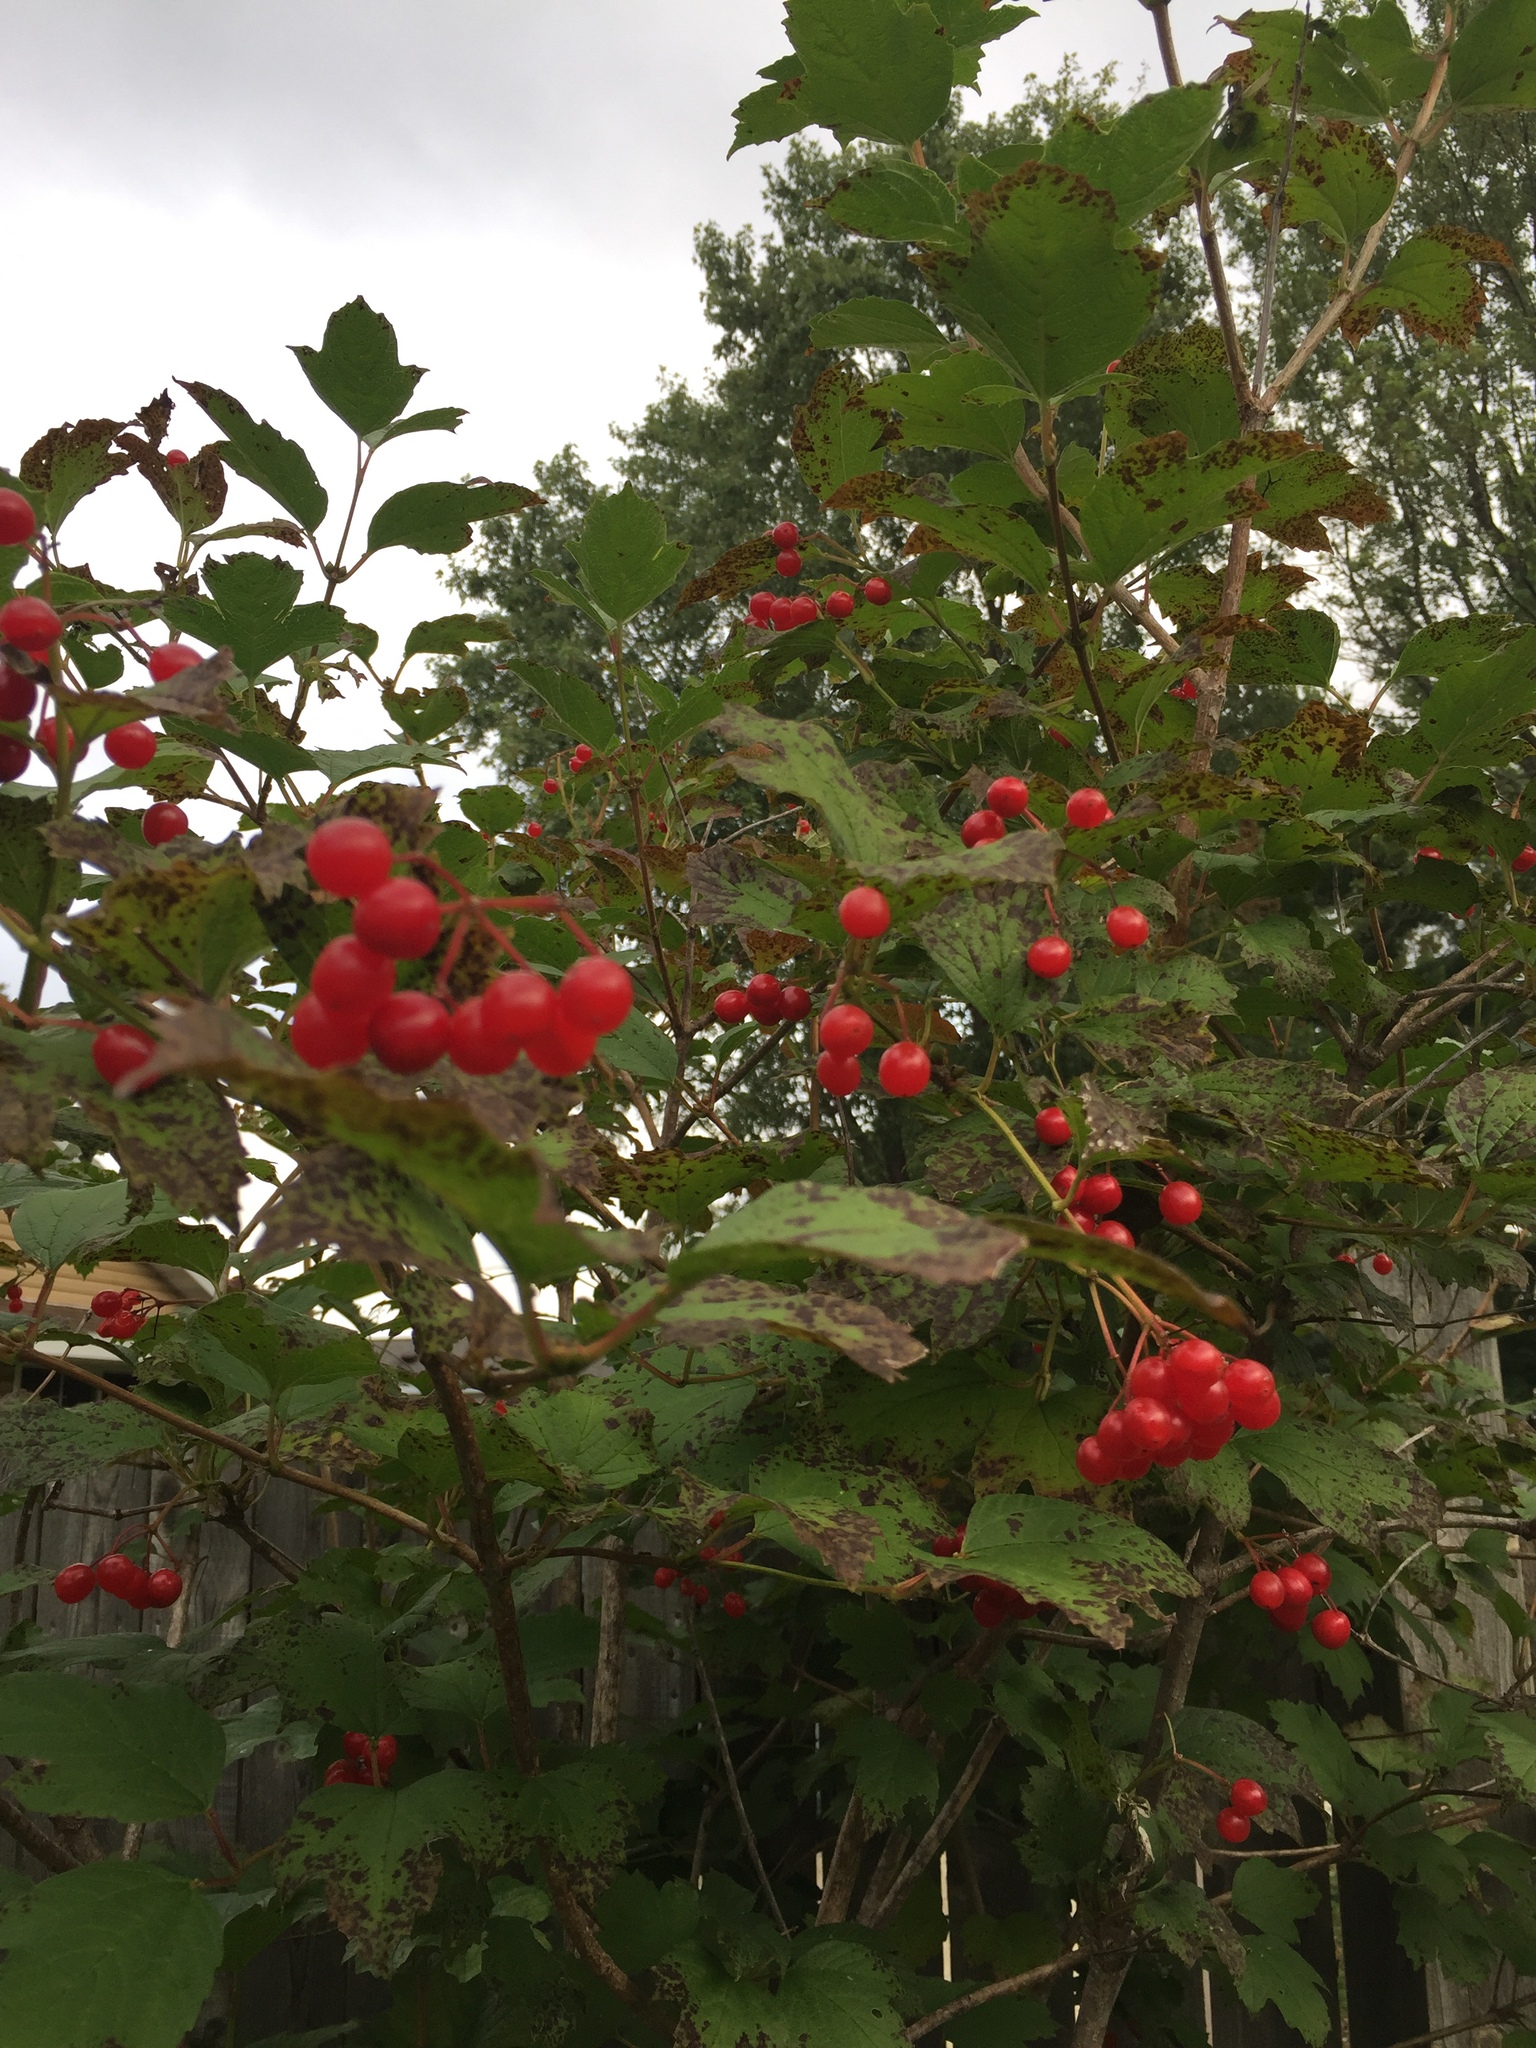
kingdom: Plantae
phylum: Tracheophyta
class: Magnoliopsida
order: Dipsacales
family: Viburnaceae
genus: Viburnum
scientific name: Viburnum opulus
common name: Guelder-rose
